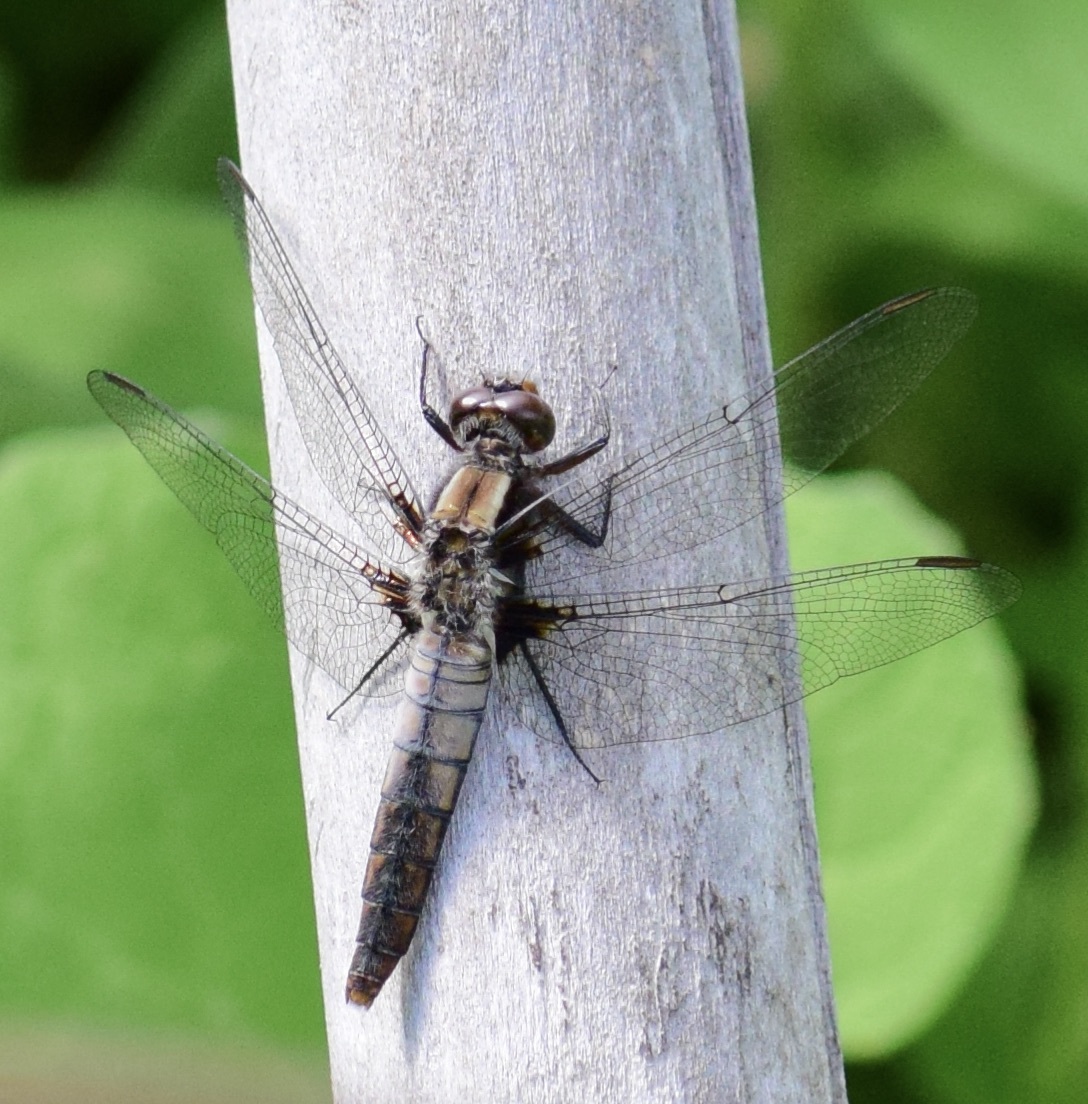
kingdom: Animalia
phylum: Arthropoda
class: Insecta
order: Odonata
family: Libellulidae
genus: Ladona
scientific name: Ladona julia
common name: Chalk-fronted corporal
